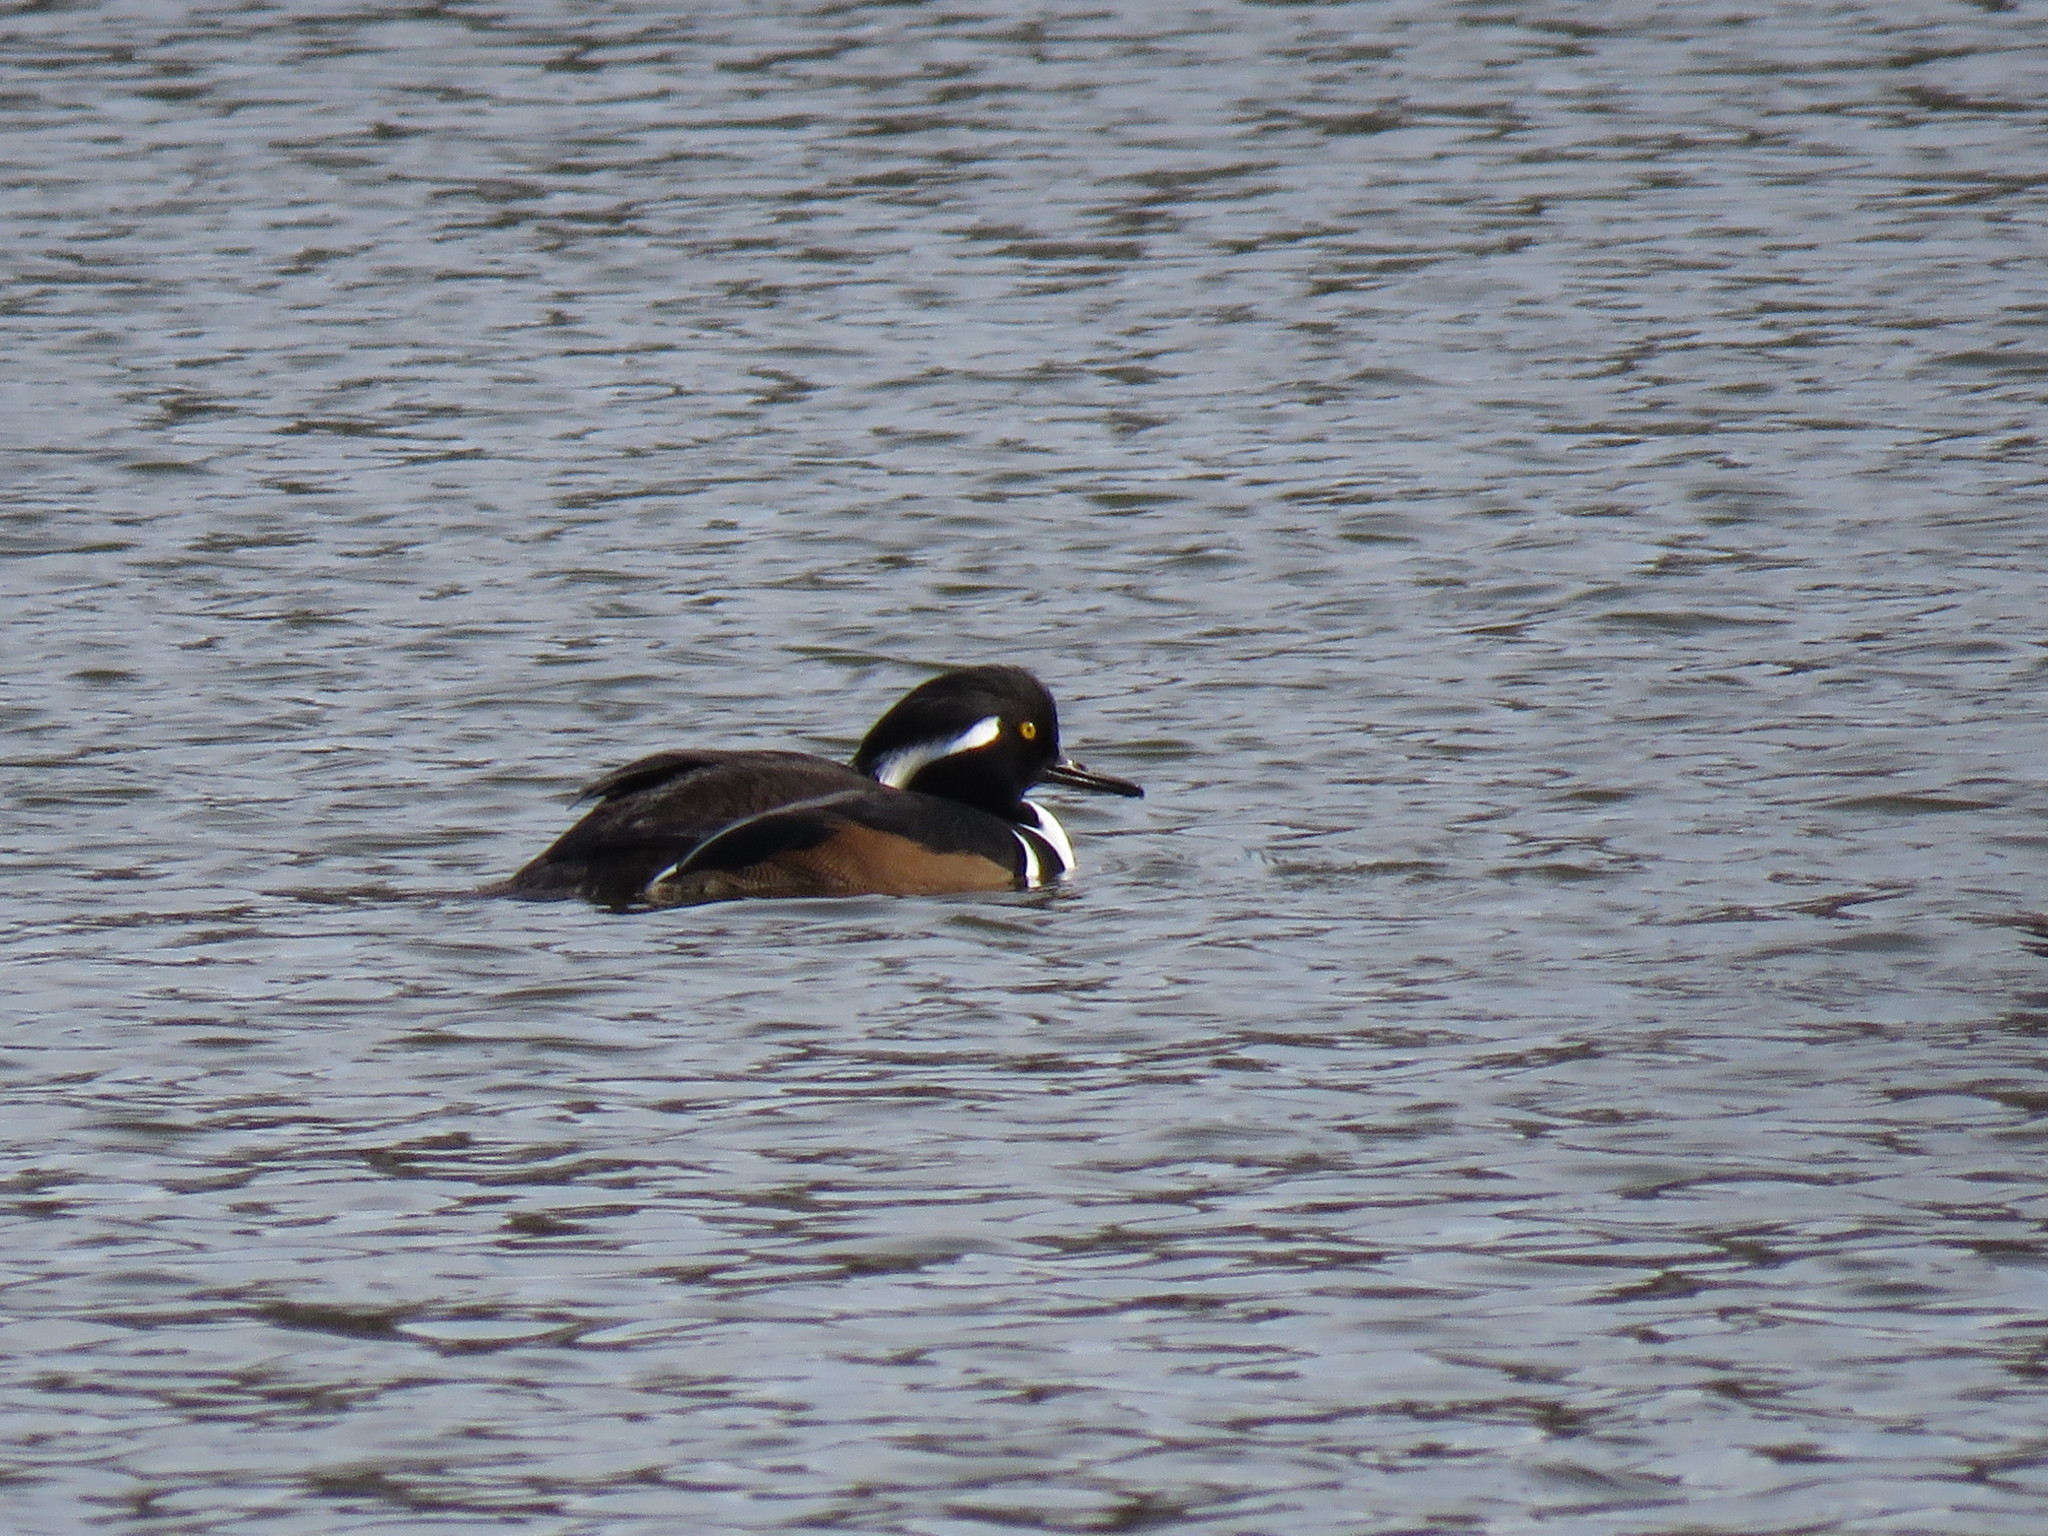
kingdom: Animalia
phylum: Chordata
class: Aves
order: Anseriformes
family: Anatidae
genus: Lophodytes
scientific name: Lophodytes cucullatus
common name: Hooded merganser
